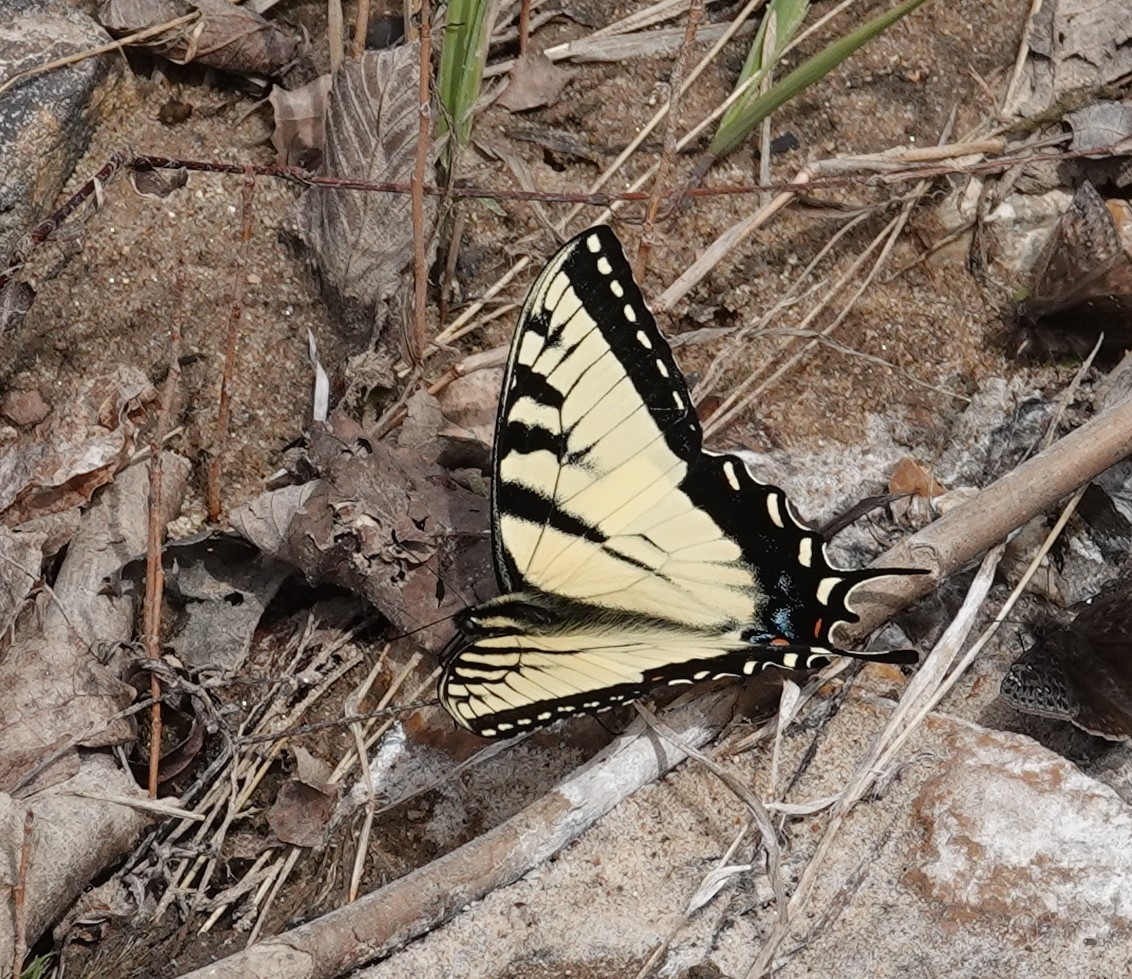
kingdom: Animalia
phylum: Arthropoda
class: Insecta
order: Lepidoptera
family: Papilionidae
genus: Papilio
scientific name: Papilio glaucus
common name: Tiger swallowtail
